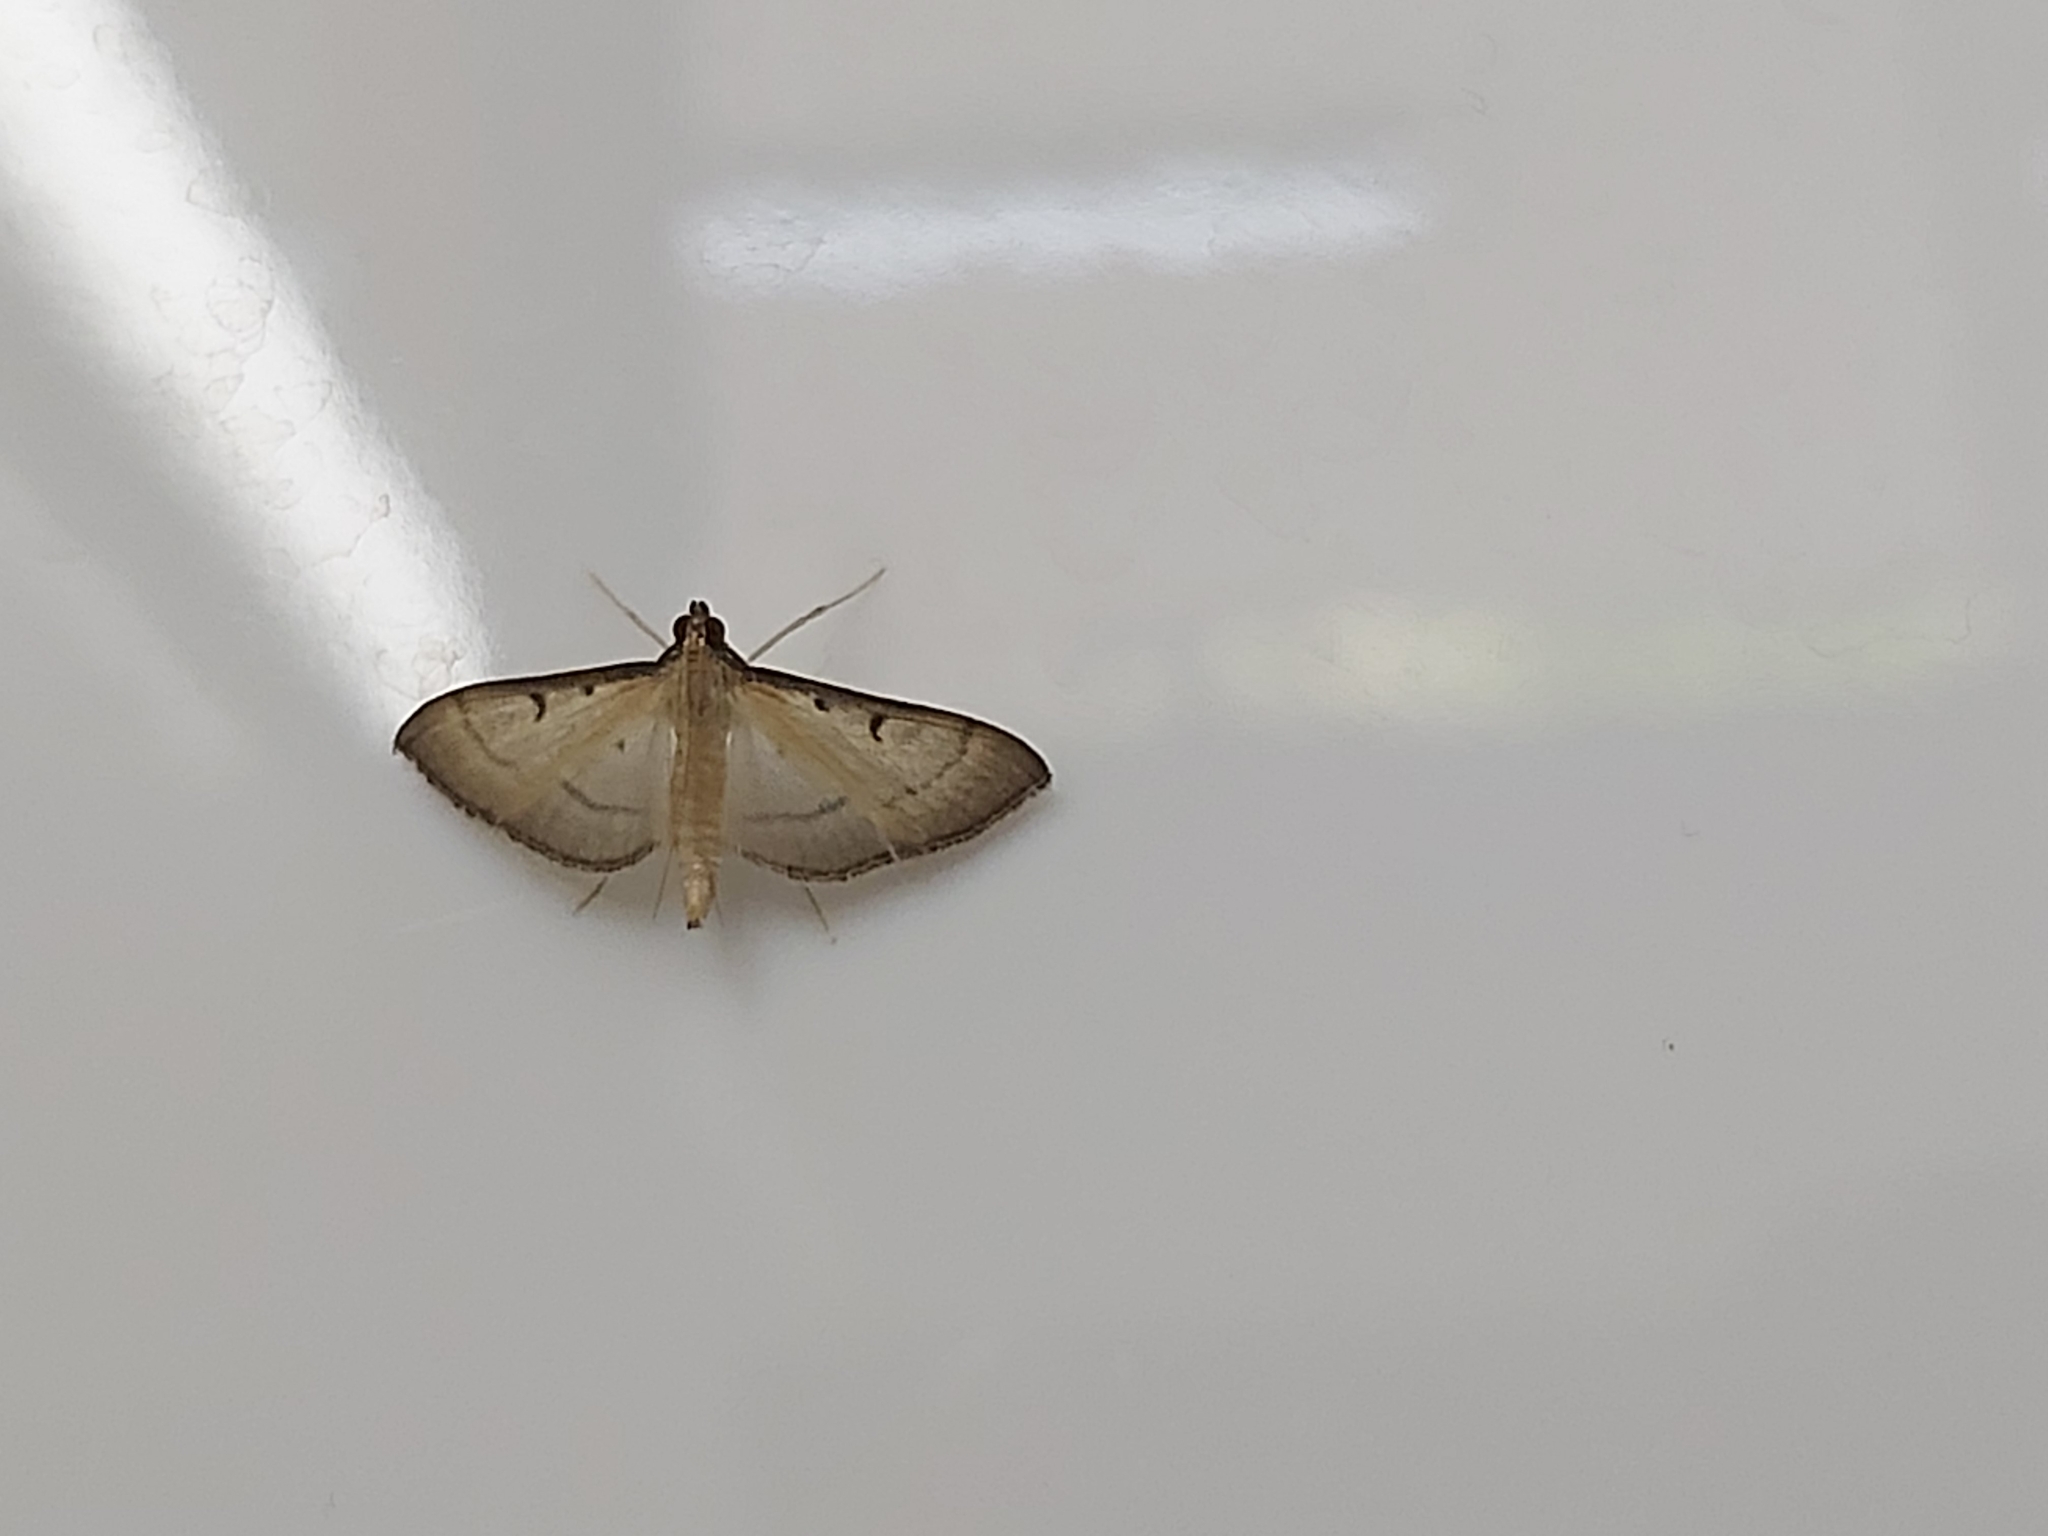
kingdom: Animalia
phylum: Arthropoda
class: Insecta
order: Lepidoptera
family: Crambidae
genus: Bradina
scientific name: Bradina admixtalis
